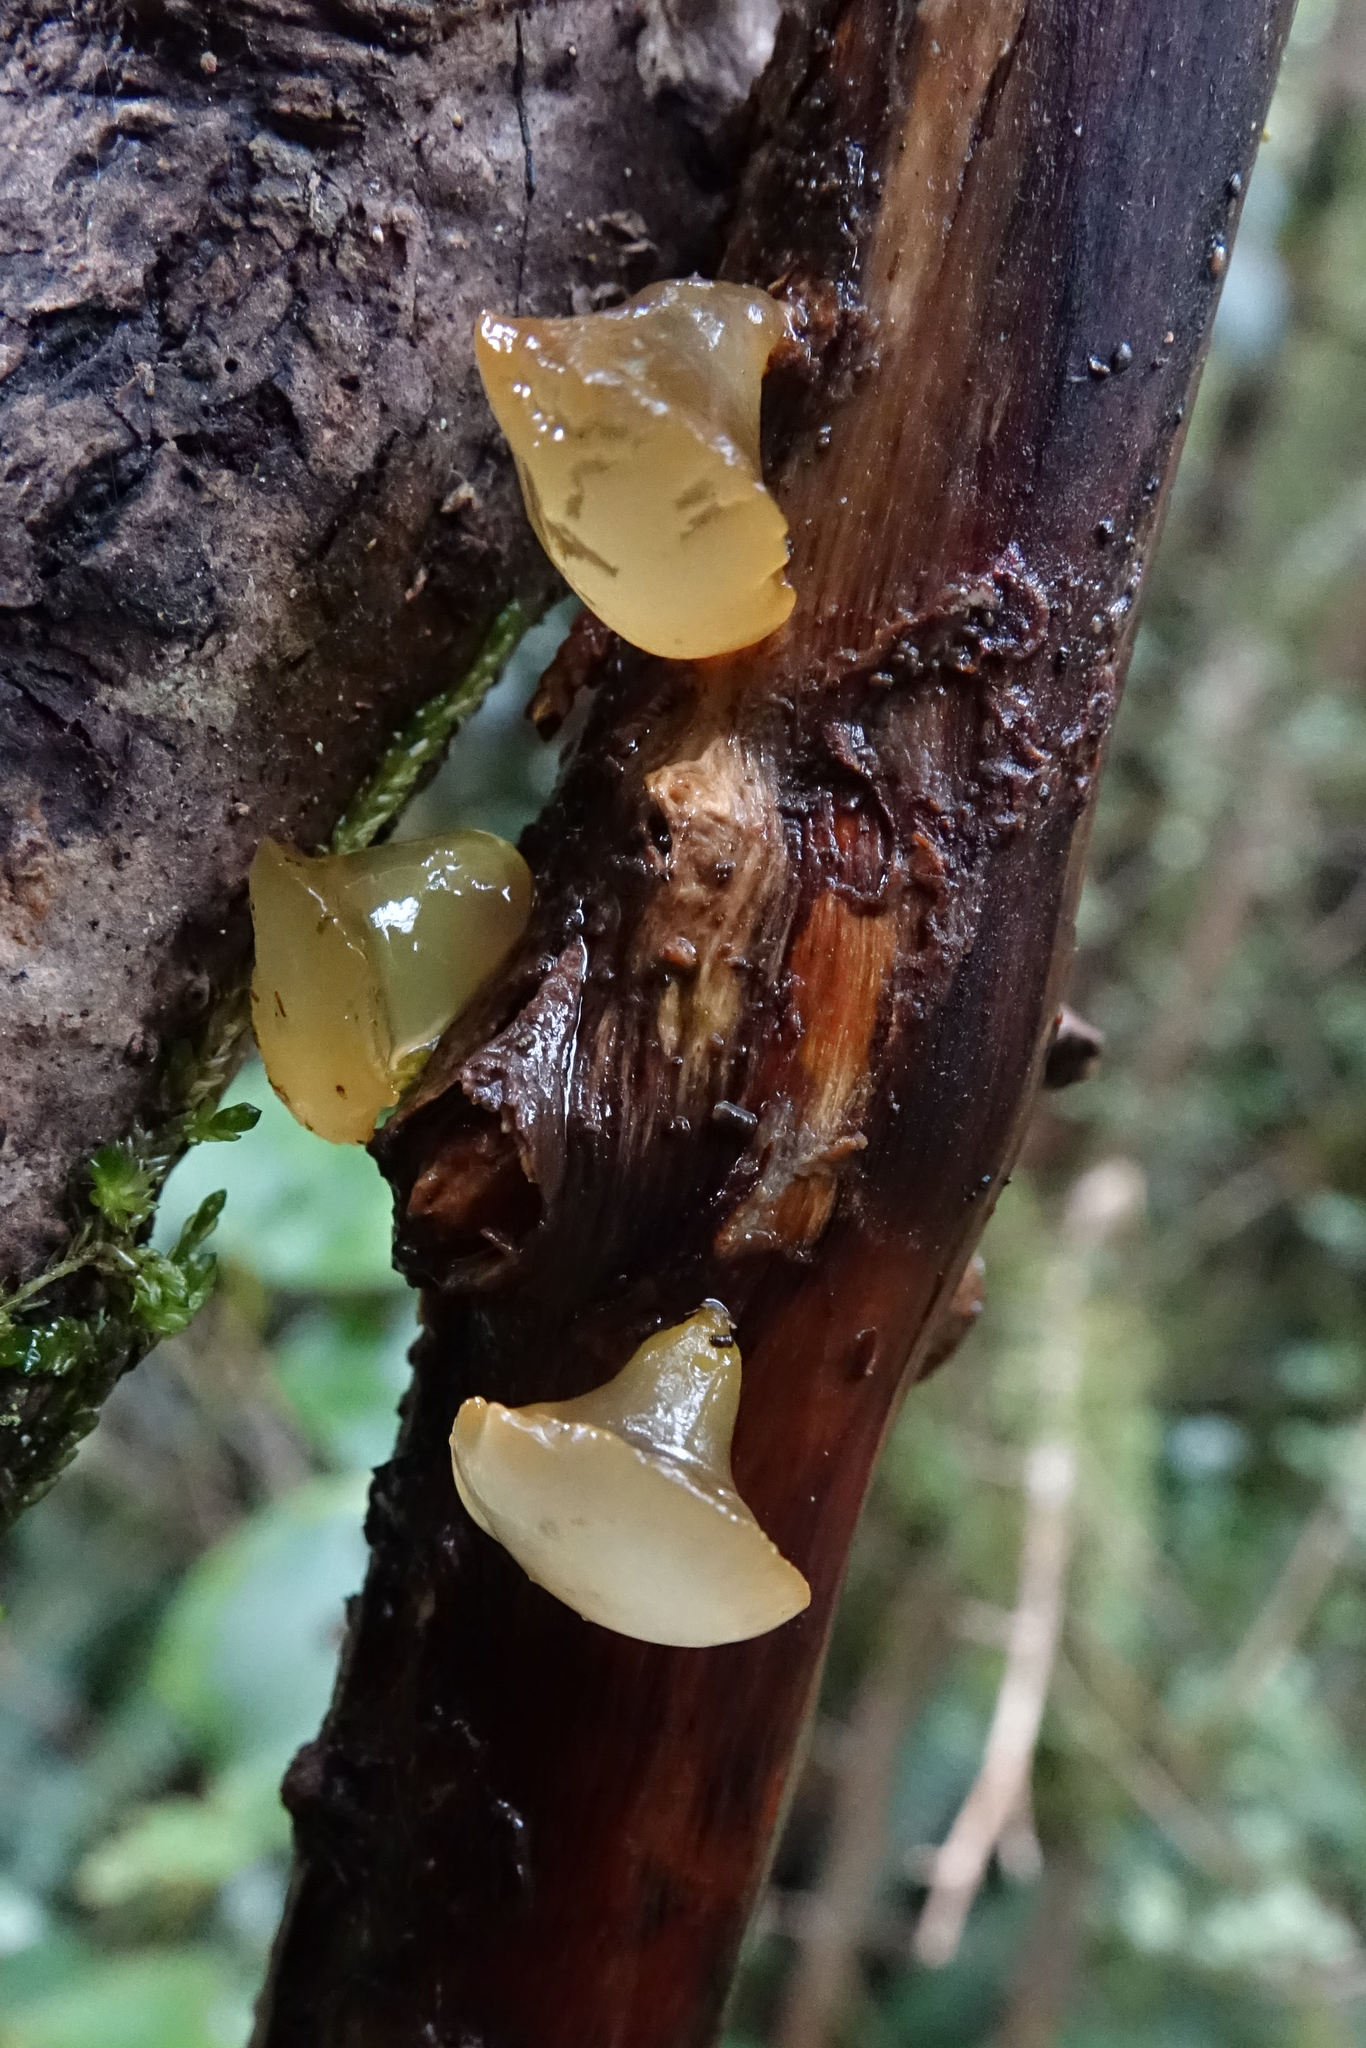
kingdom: Fungi
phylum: Basidiomycota
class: Dacrymycetes
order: Dacrymycetales
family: Dacrymycetaceae
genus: Heterotextus
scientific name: Heterotextus miltinus
